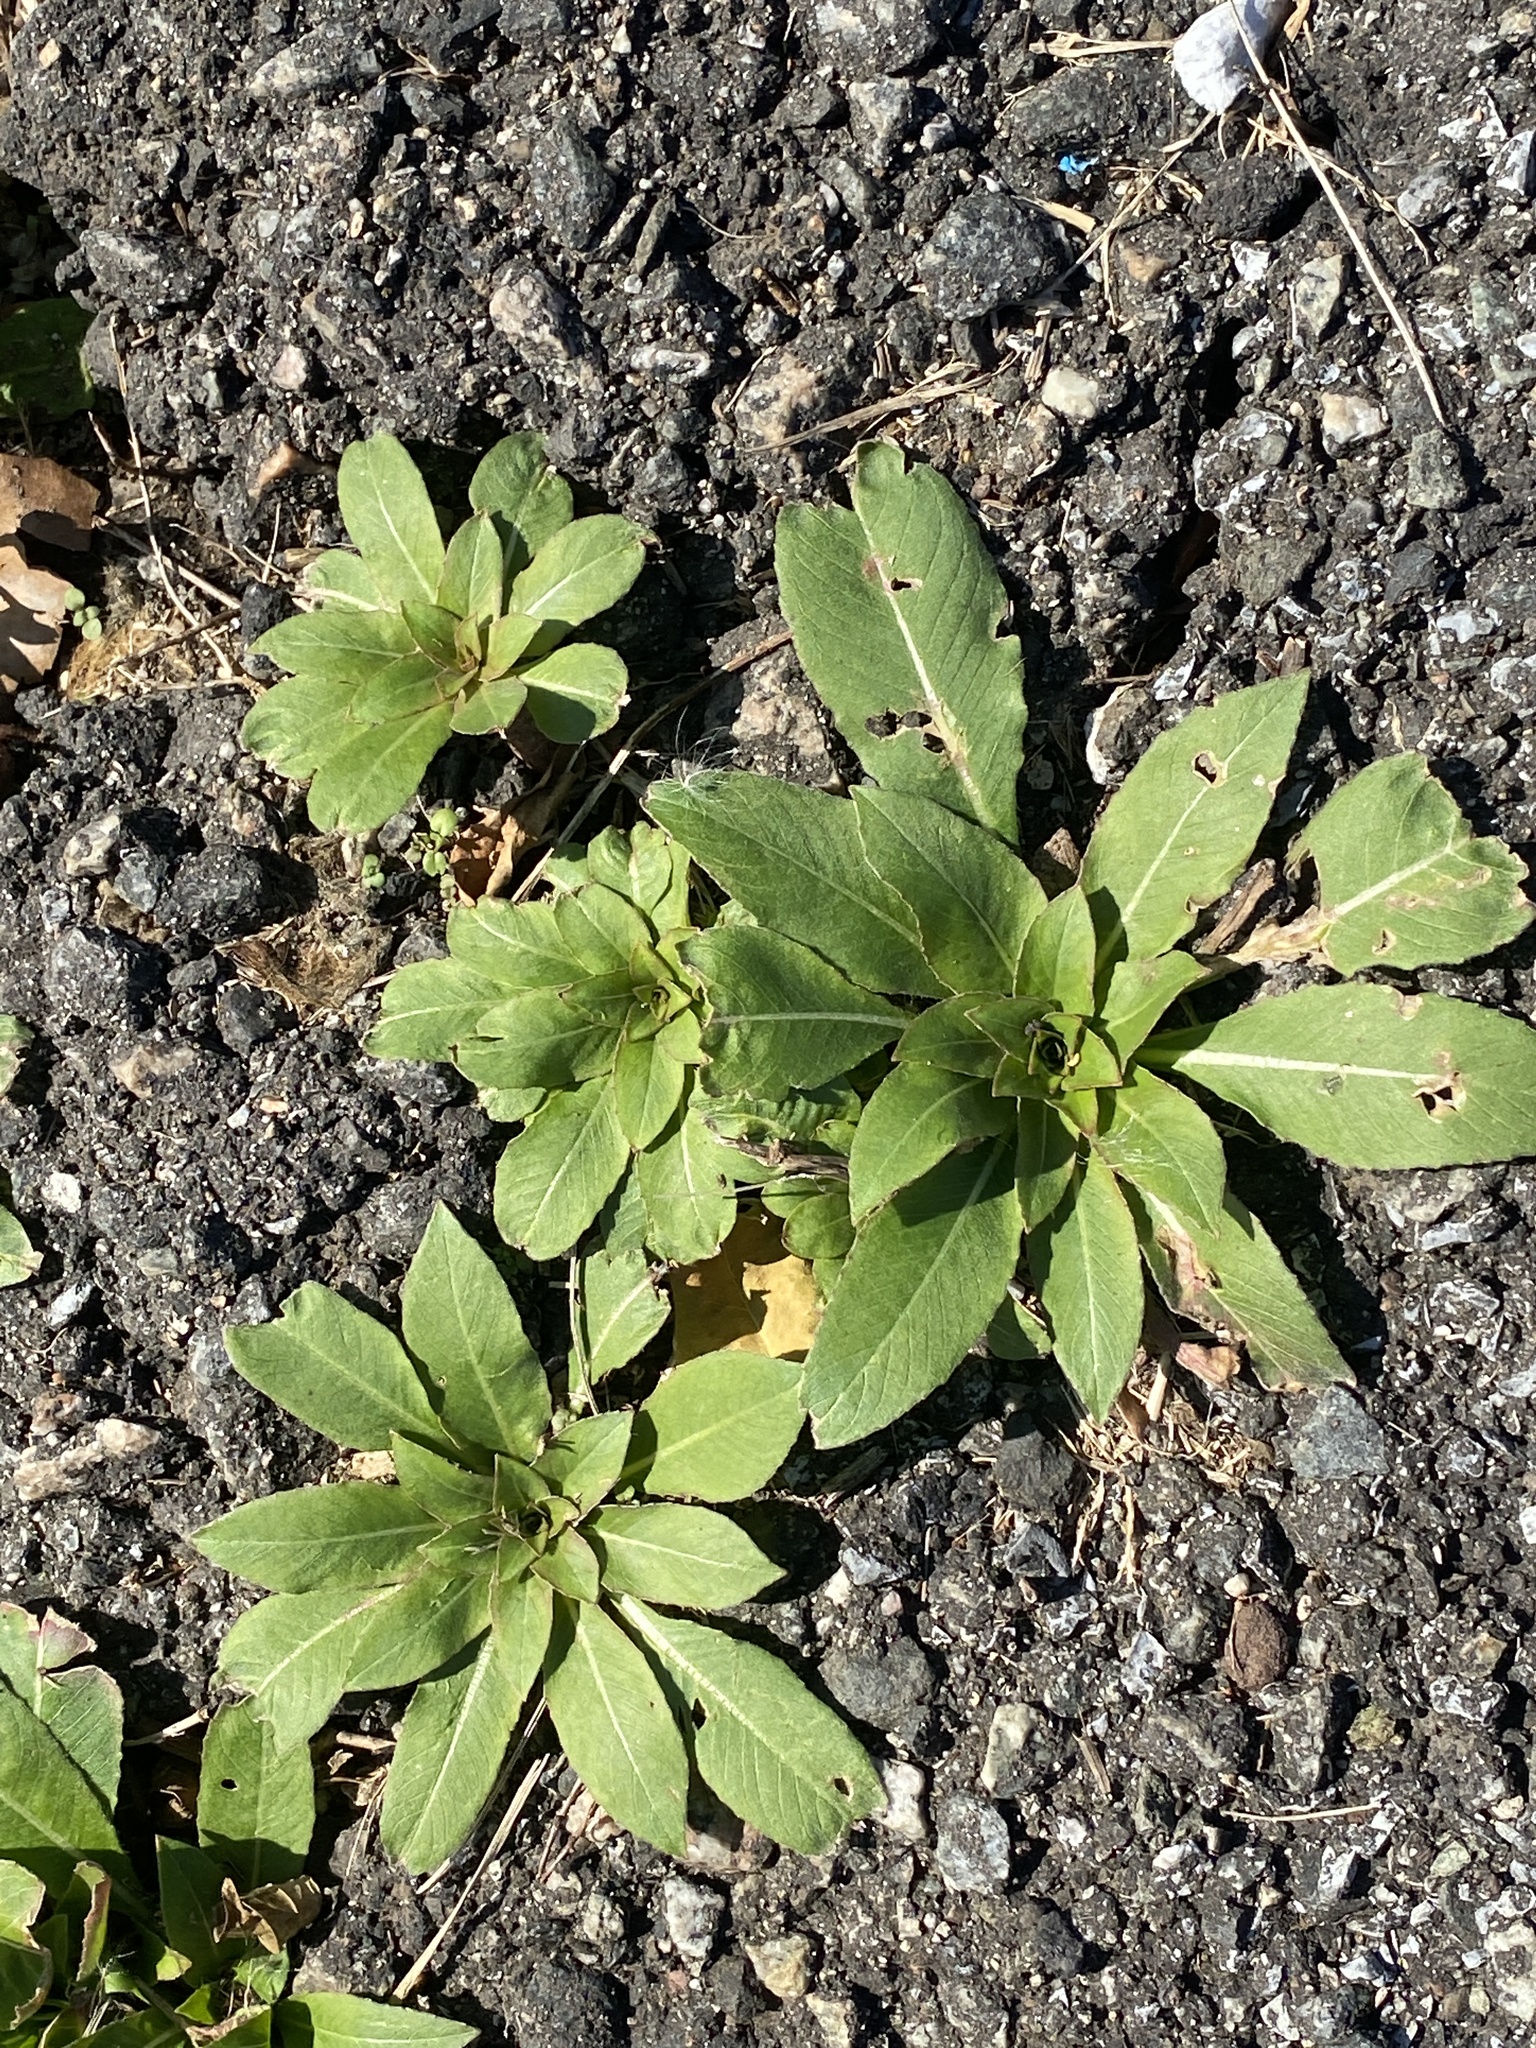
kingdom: Plantae
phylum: Tracheophyta
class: Magnoliopsida
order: Myrtales
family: Onagraceae
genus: Oenothera
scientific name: Oenothera biennis
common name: Common evening-primrose
